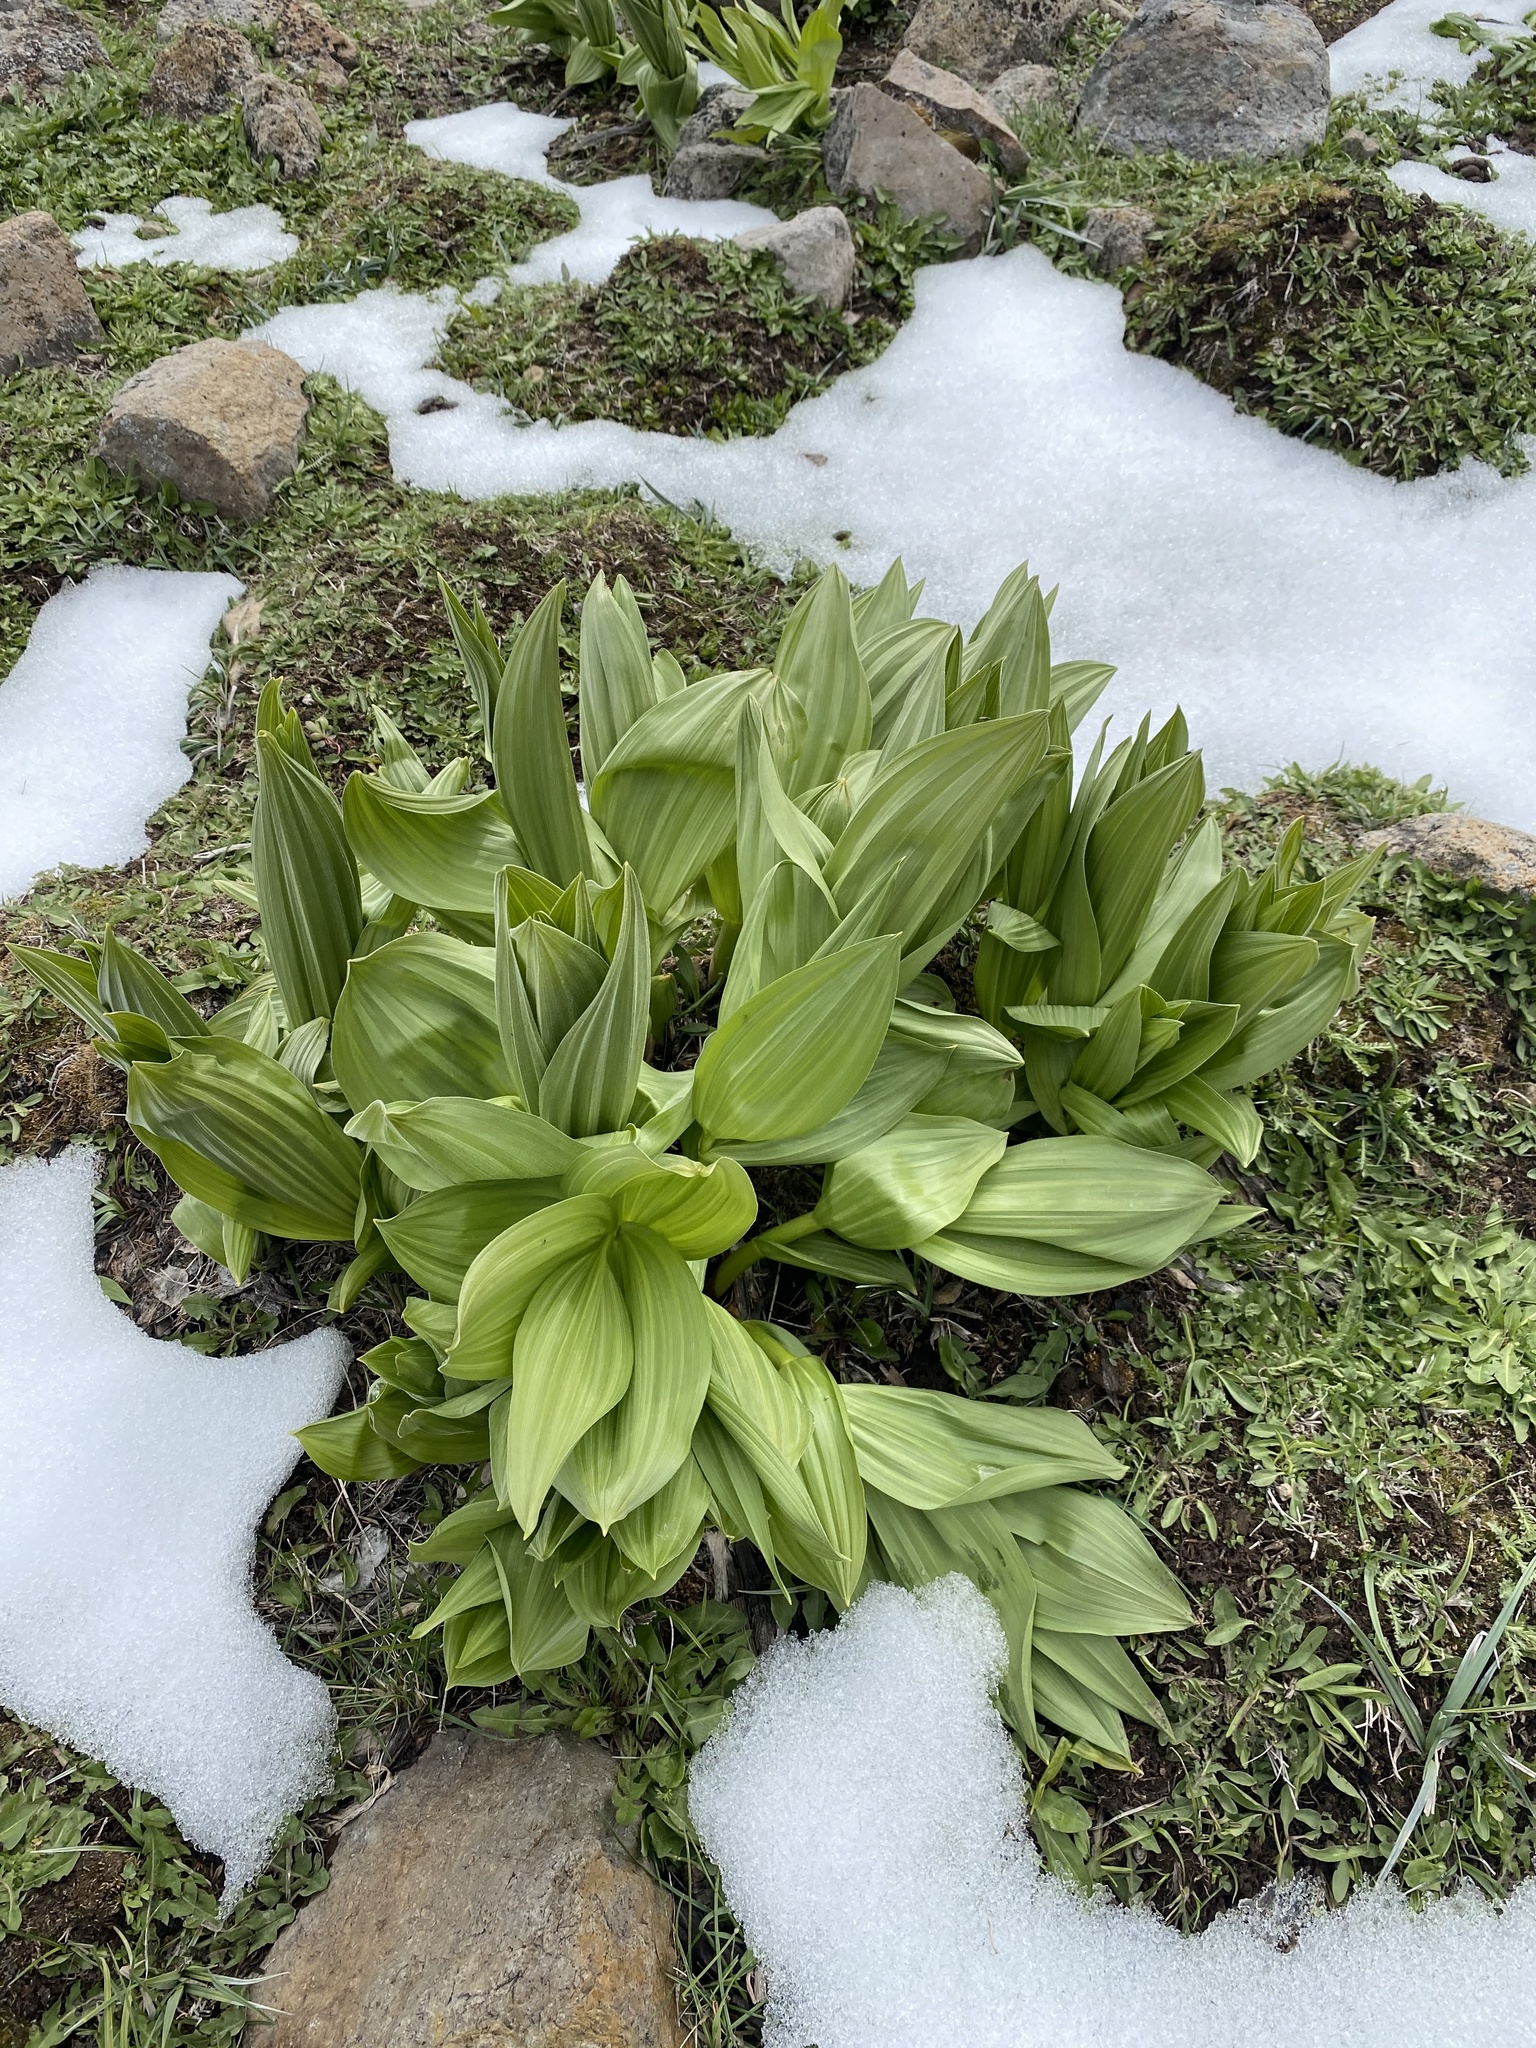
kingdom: Plantae
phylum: Tracheophyta
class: Liliopsida
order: Liliales
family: Melanthiaceae
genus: Veratrum
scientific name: Veratrum californicum
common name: California veratrum
